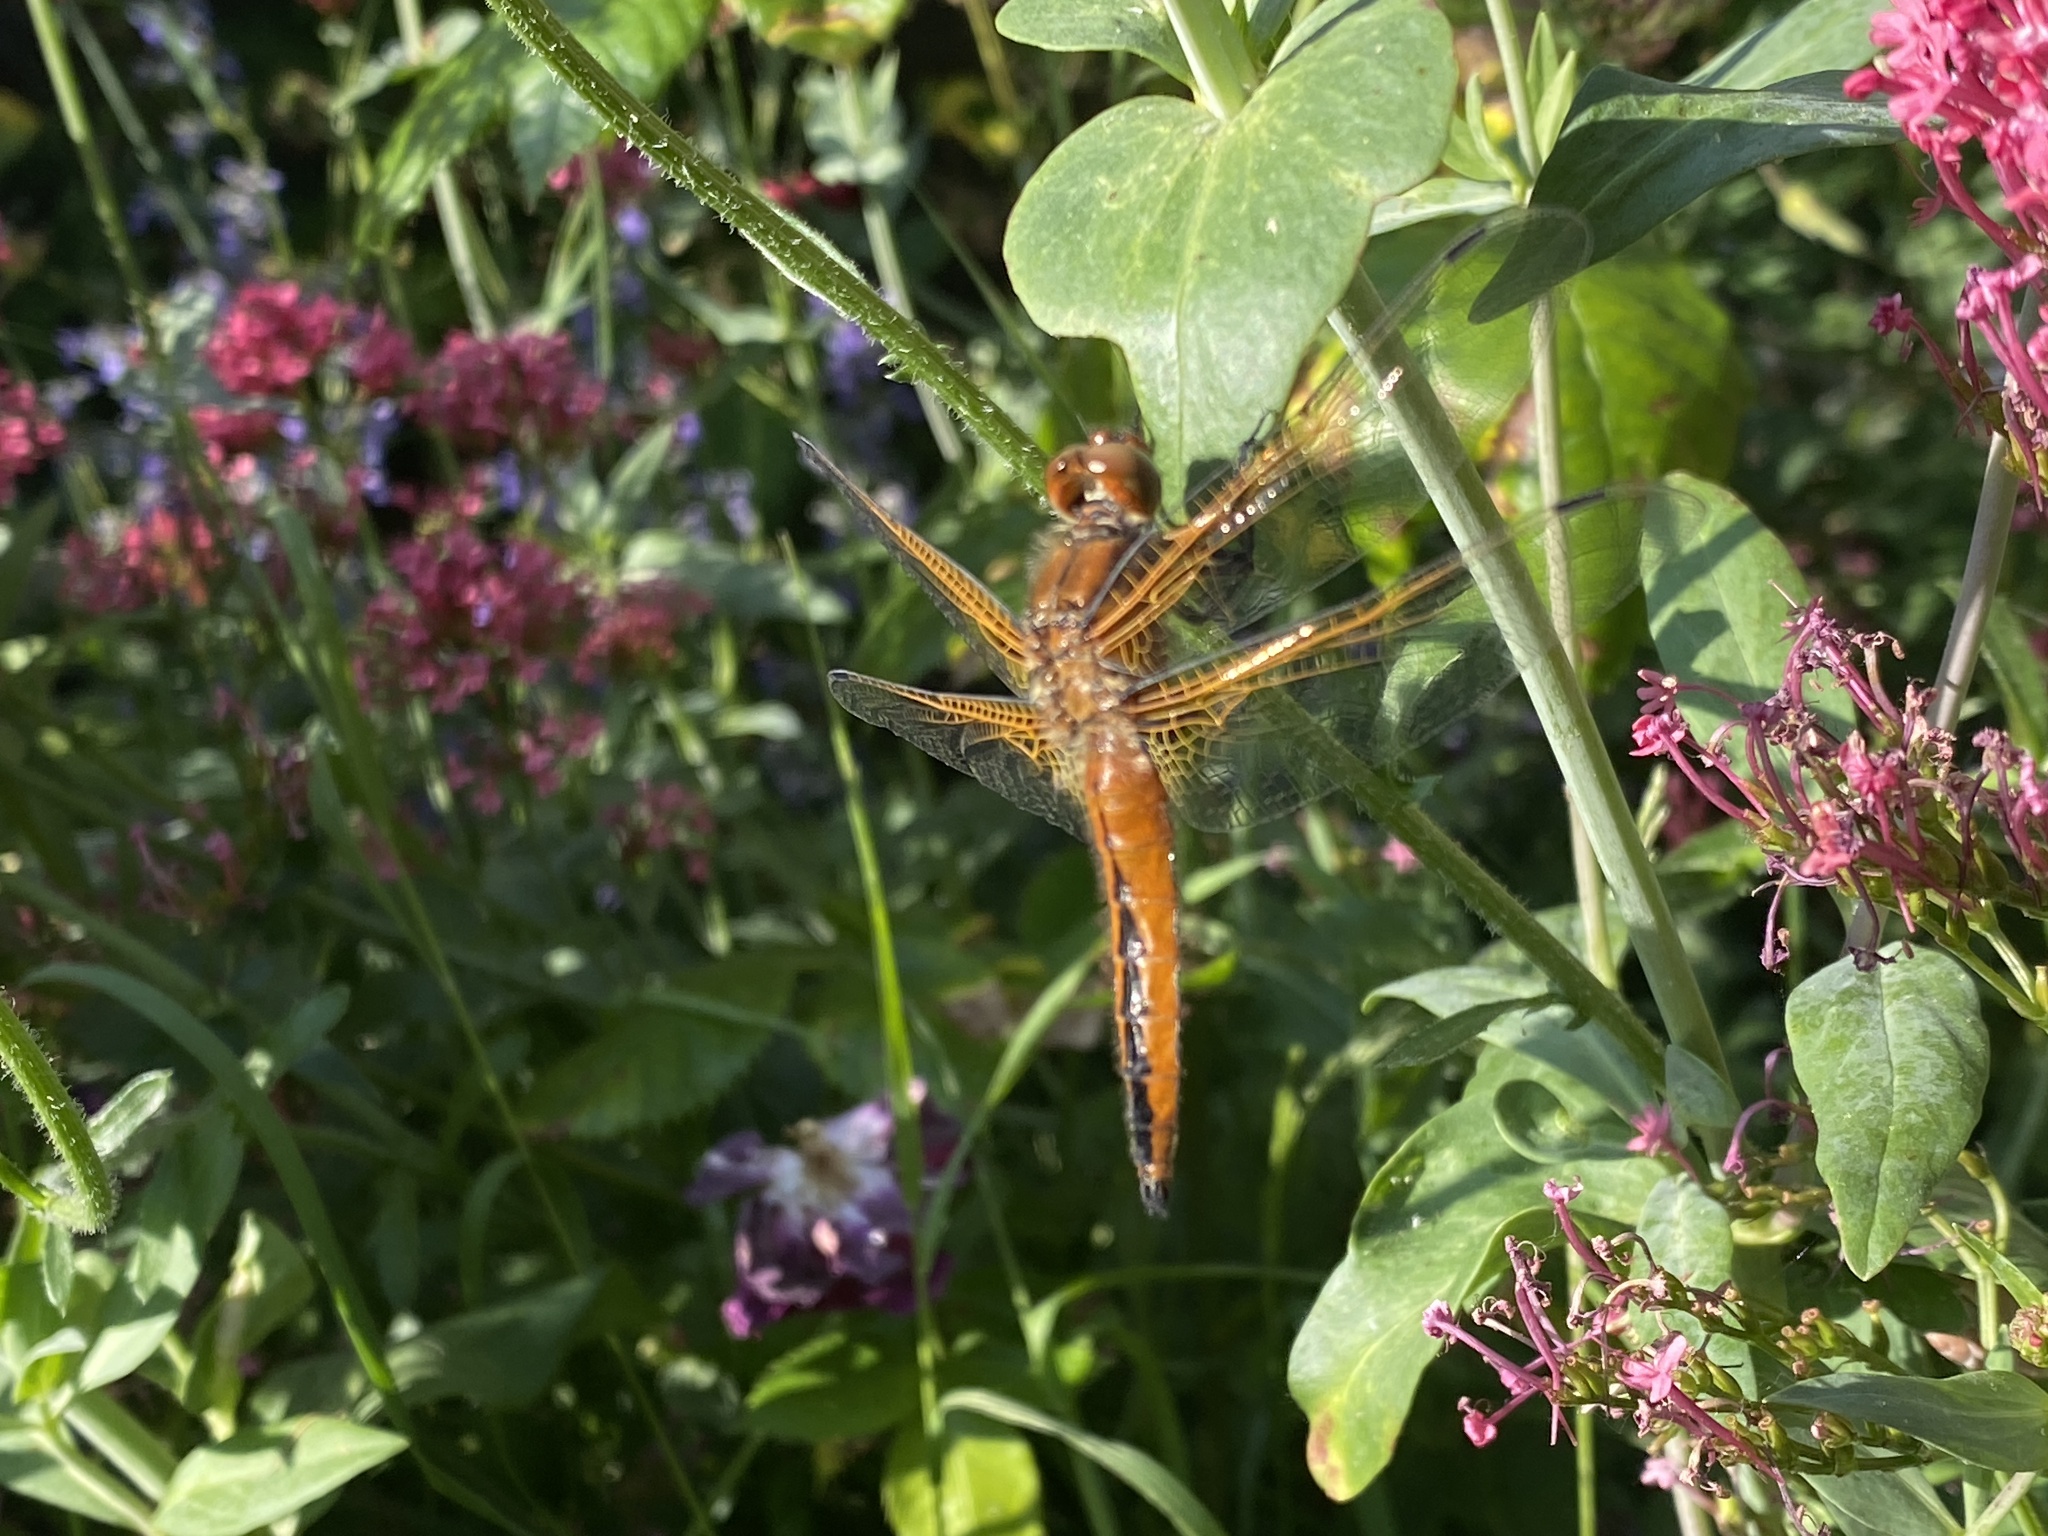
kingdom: Animalia
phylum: Arthropoda
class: Insecta
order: Odonata
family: Libellulidae
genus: Libellula
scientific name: Libellula fulva
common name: Blue chaser
